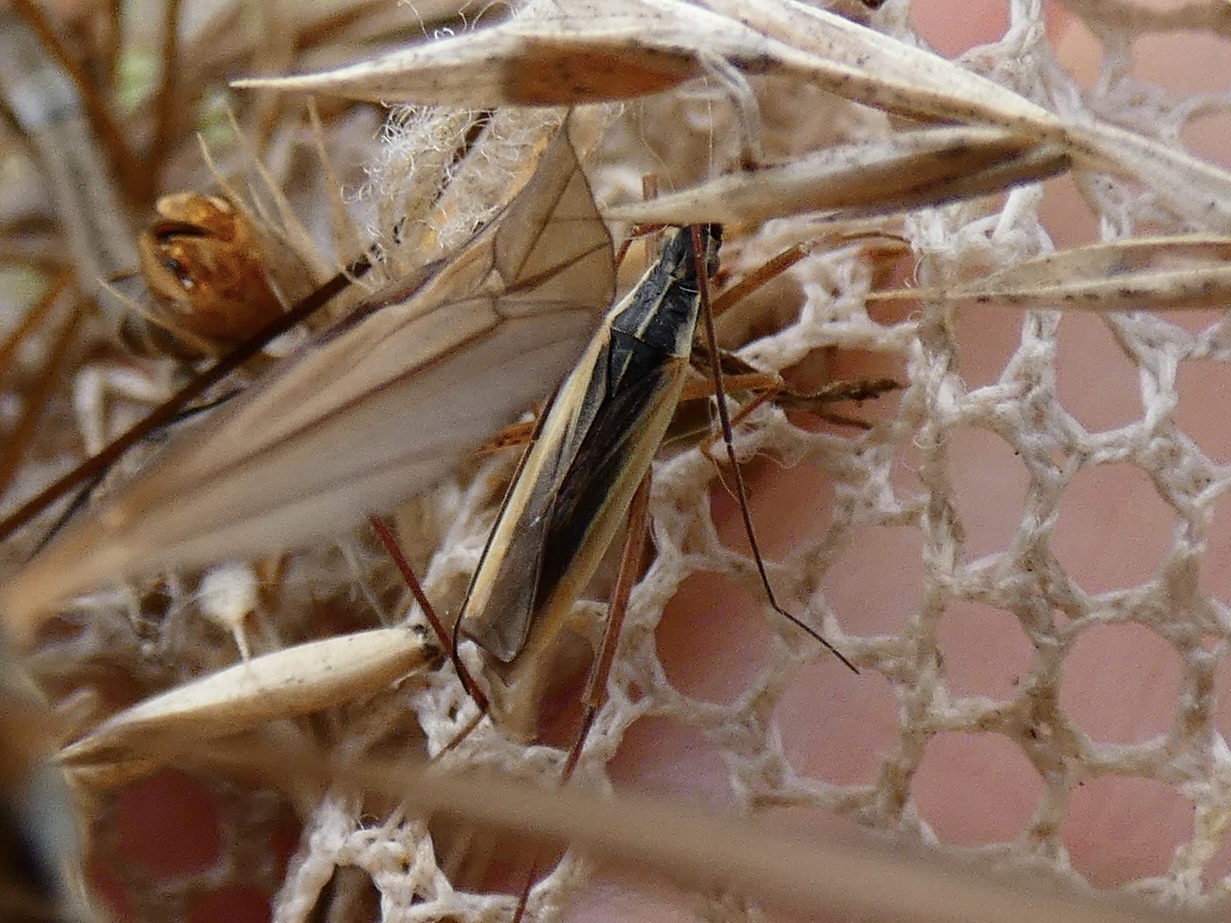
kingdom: Animalia
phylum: Arthropoda
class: Insecta
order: Hemiptera
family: Miridae
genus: Notostira
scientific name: Notostira elongata
